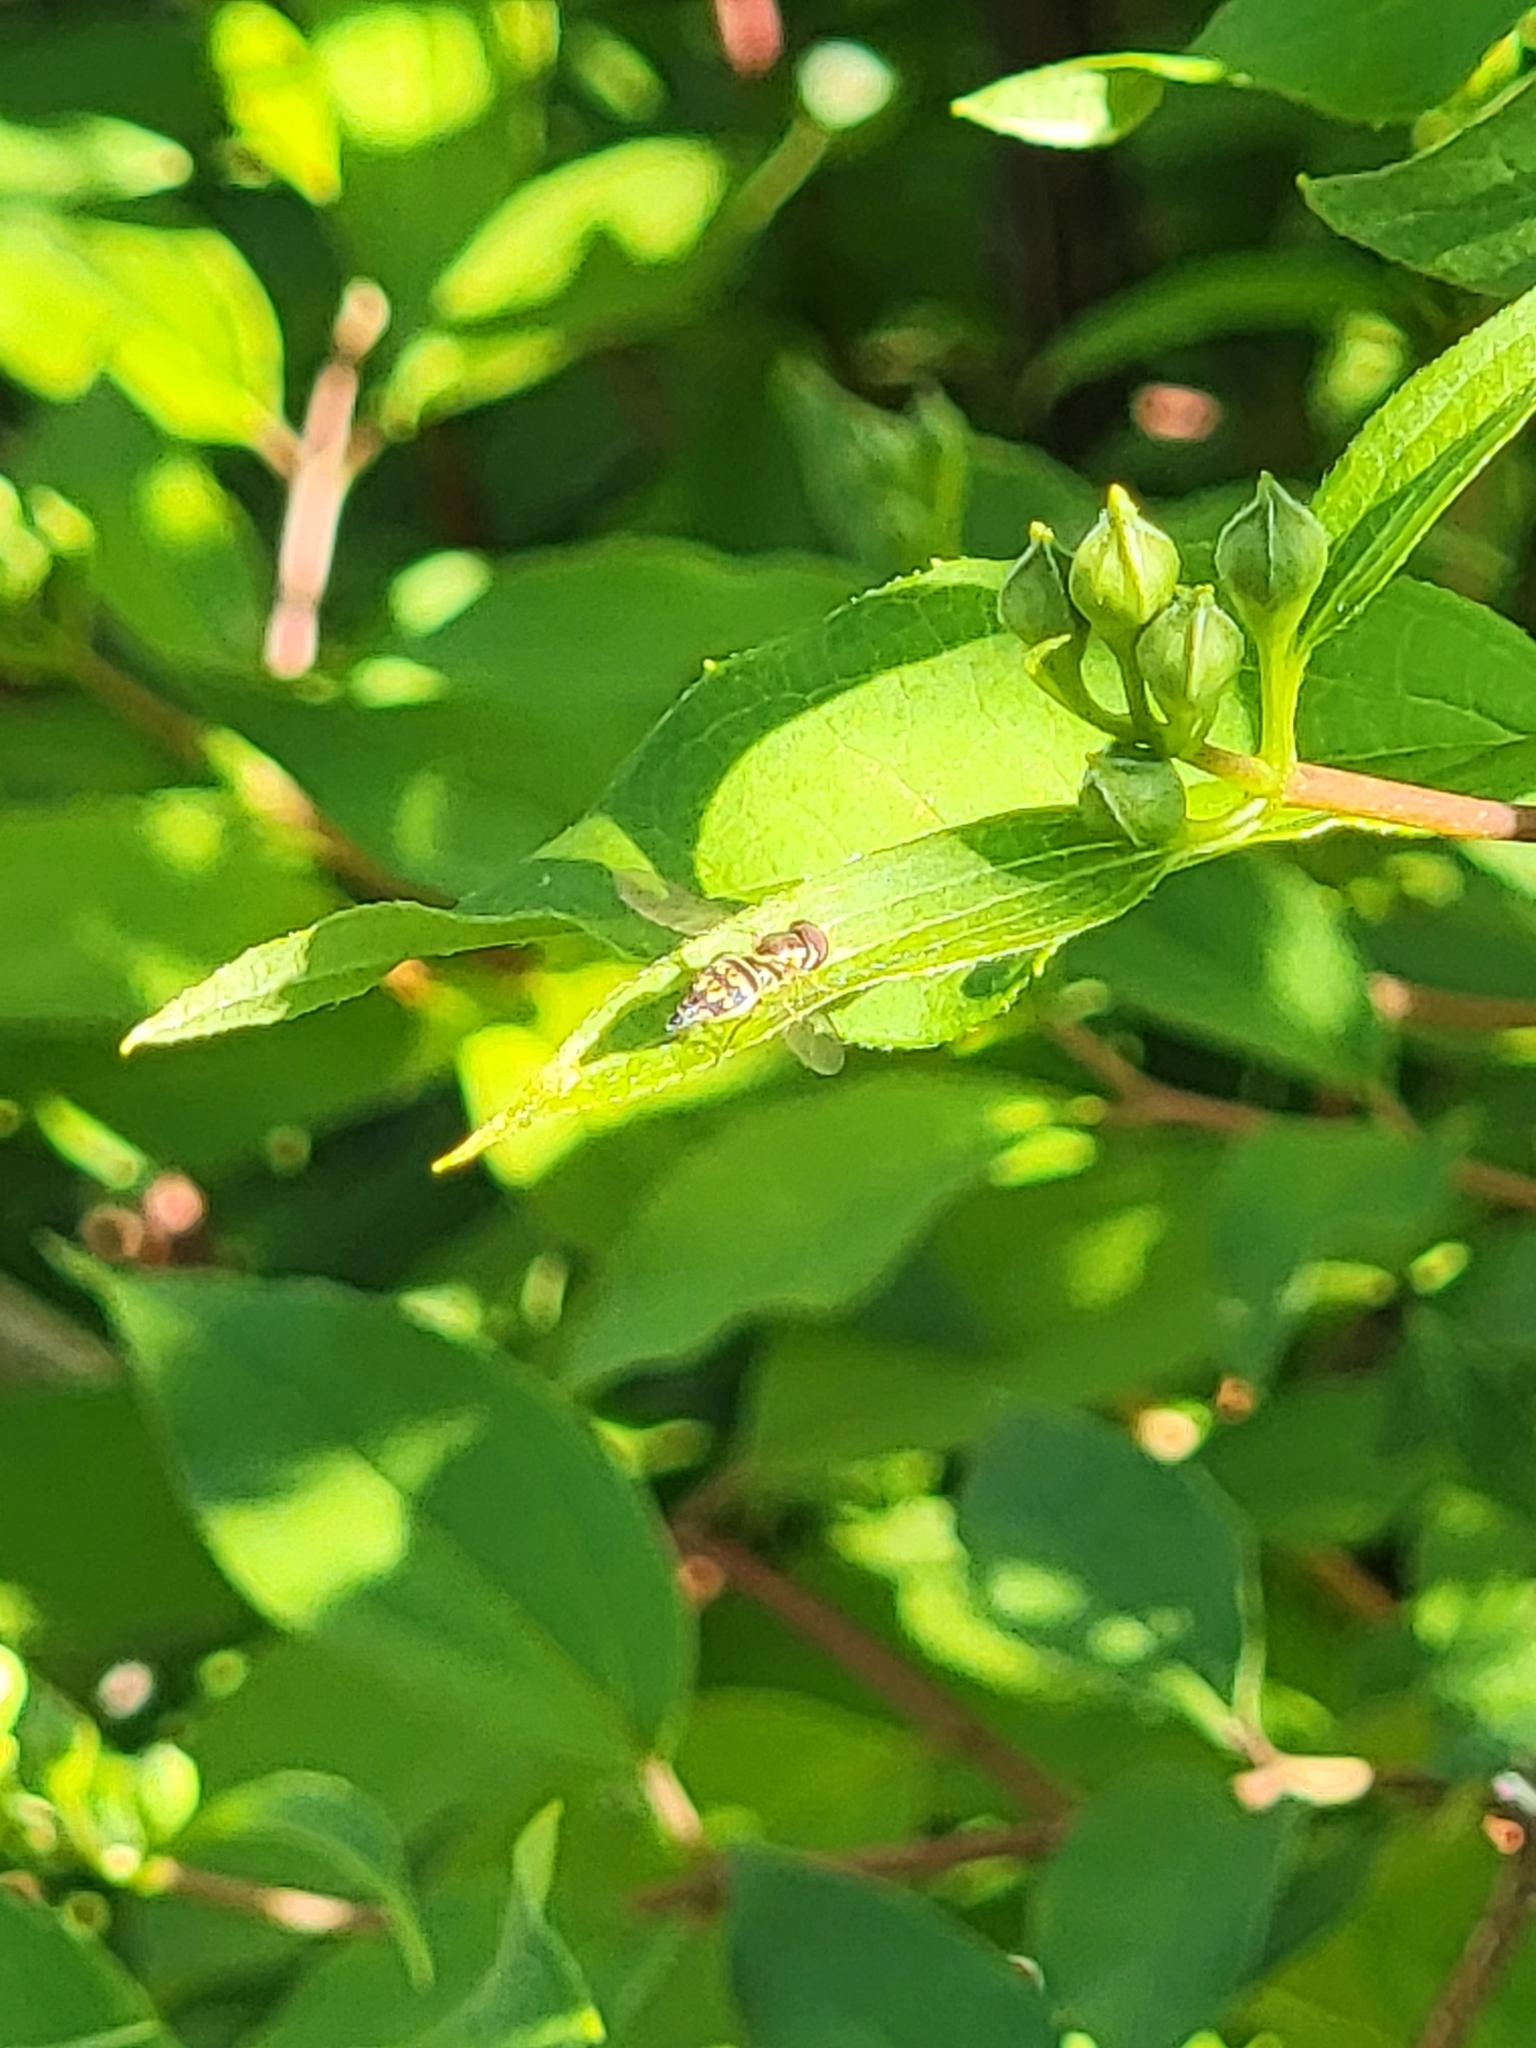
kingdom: Animalia
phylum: Arthropoda
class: Insecta
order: Diptera
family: Syrphidae
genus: Toxomerus
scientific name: Toxomerus geminatus
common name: Eastern calligrapher
